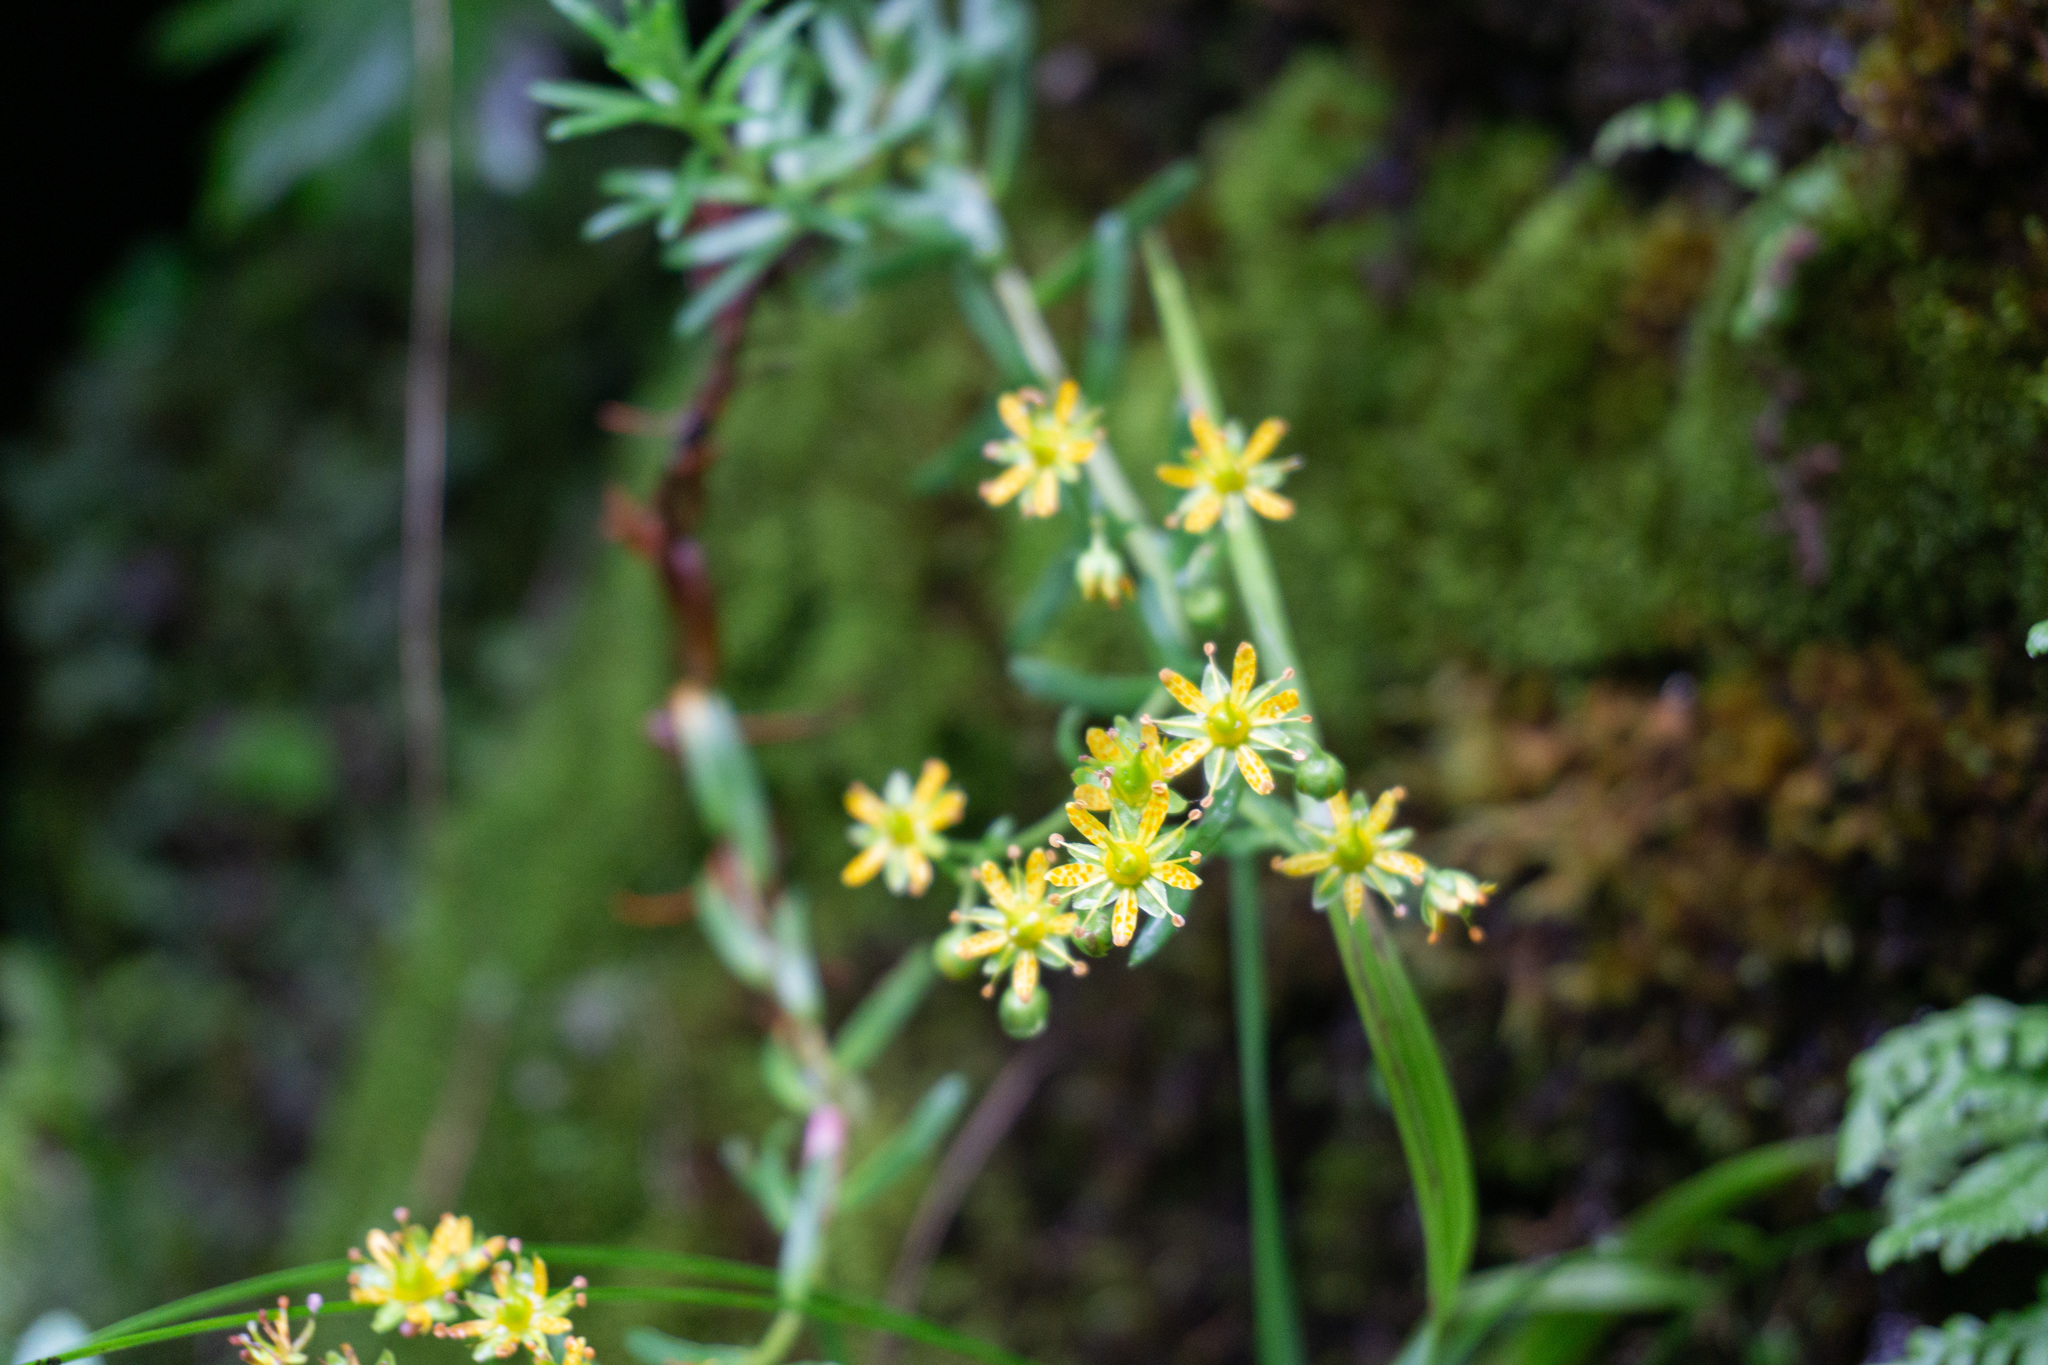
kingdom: Plantae
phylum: Tracheophyta
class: Magnoliopsida
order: Saxifragales
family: Saxifragaceae
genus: Saxifraga
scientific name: Saxifraga aizoides
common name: Yellow mountain saxifrage
